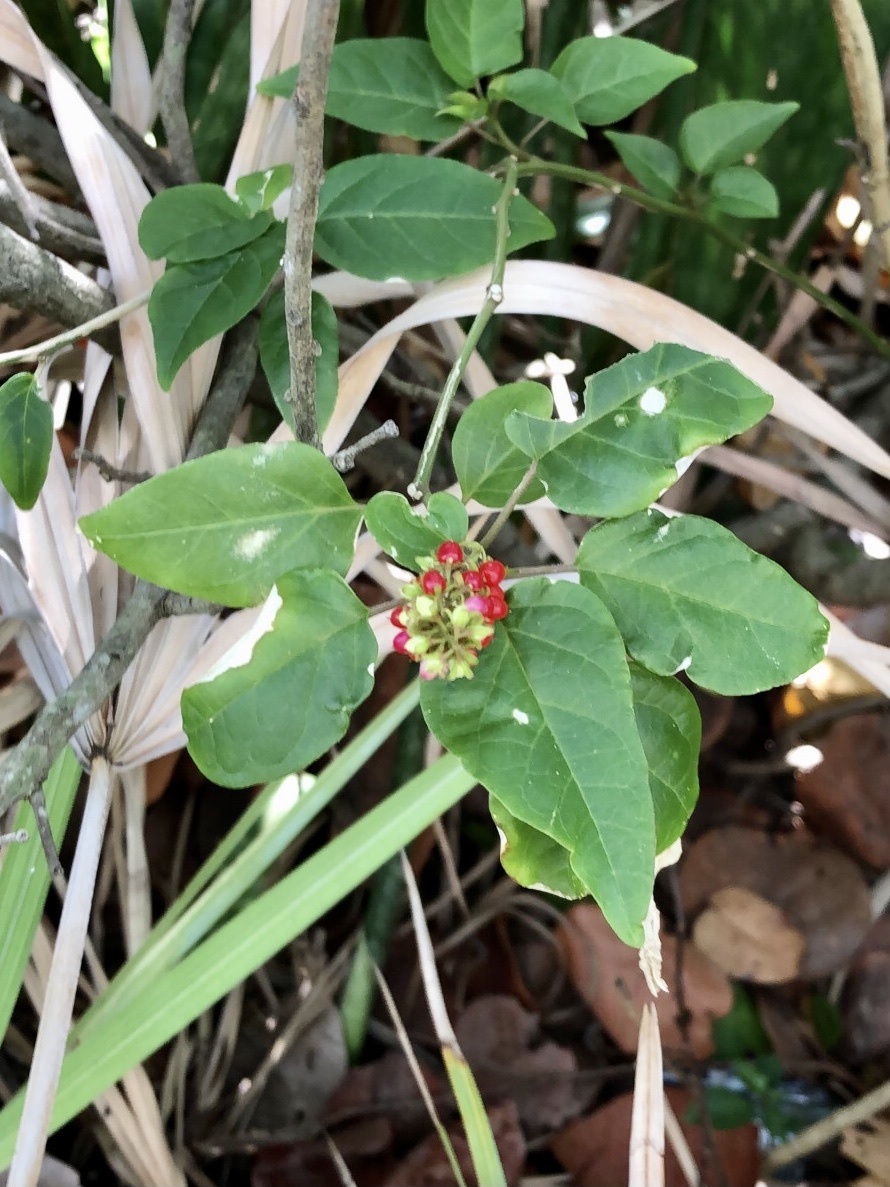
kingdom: Plantae
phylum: Tracheophyta
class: Magnoliopsida
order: Caryophyllales
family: Phytolaccaceae
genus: Rivina
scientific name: Rivina humilis
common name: Rougeplant
